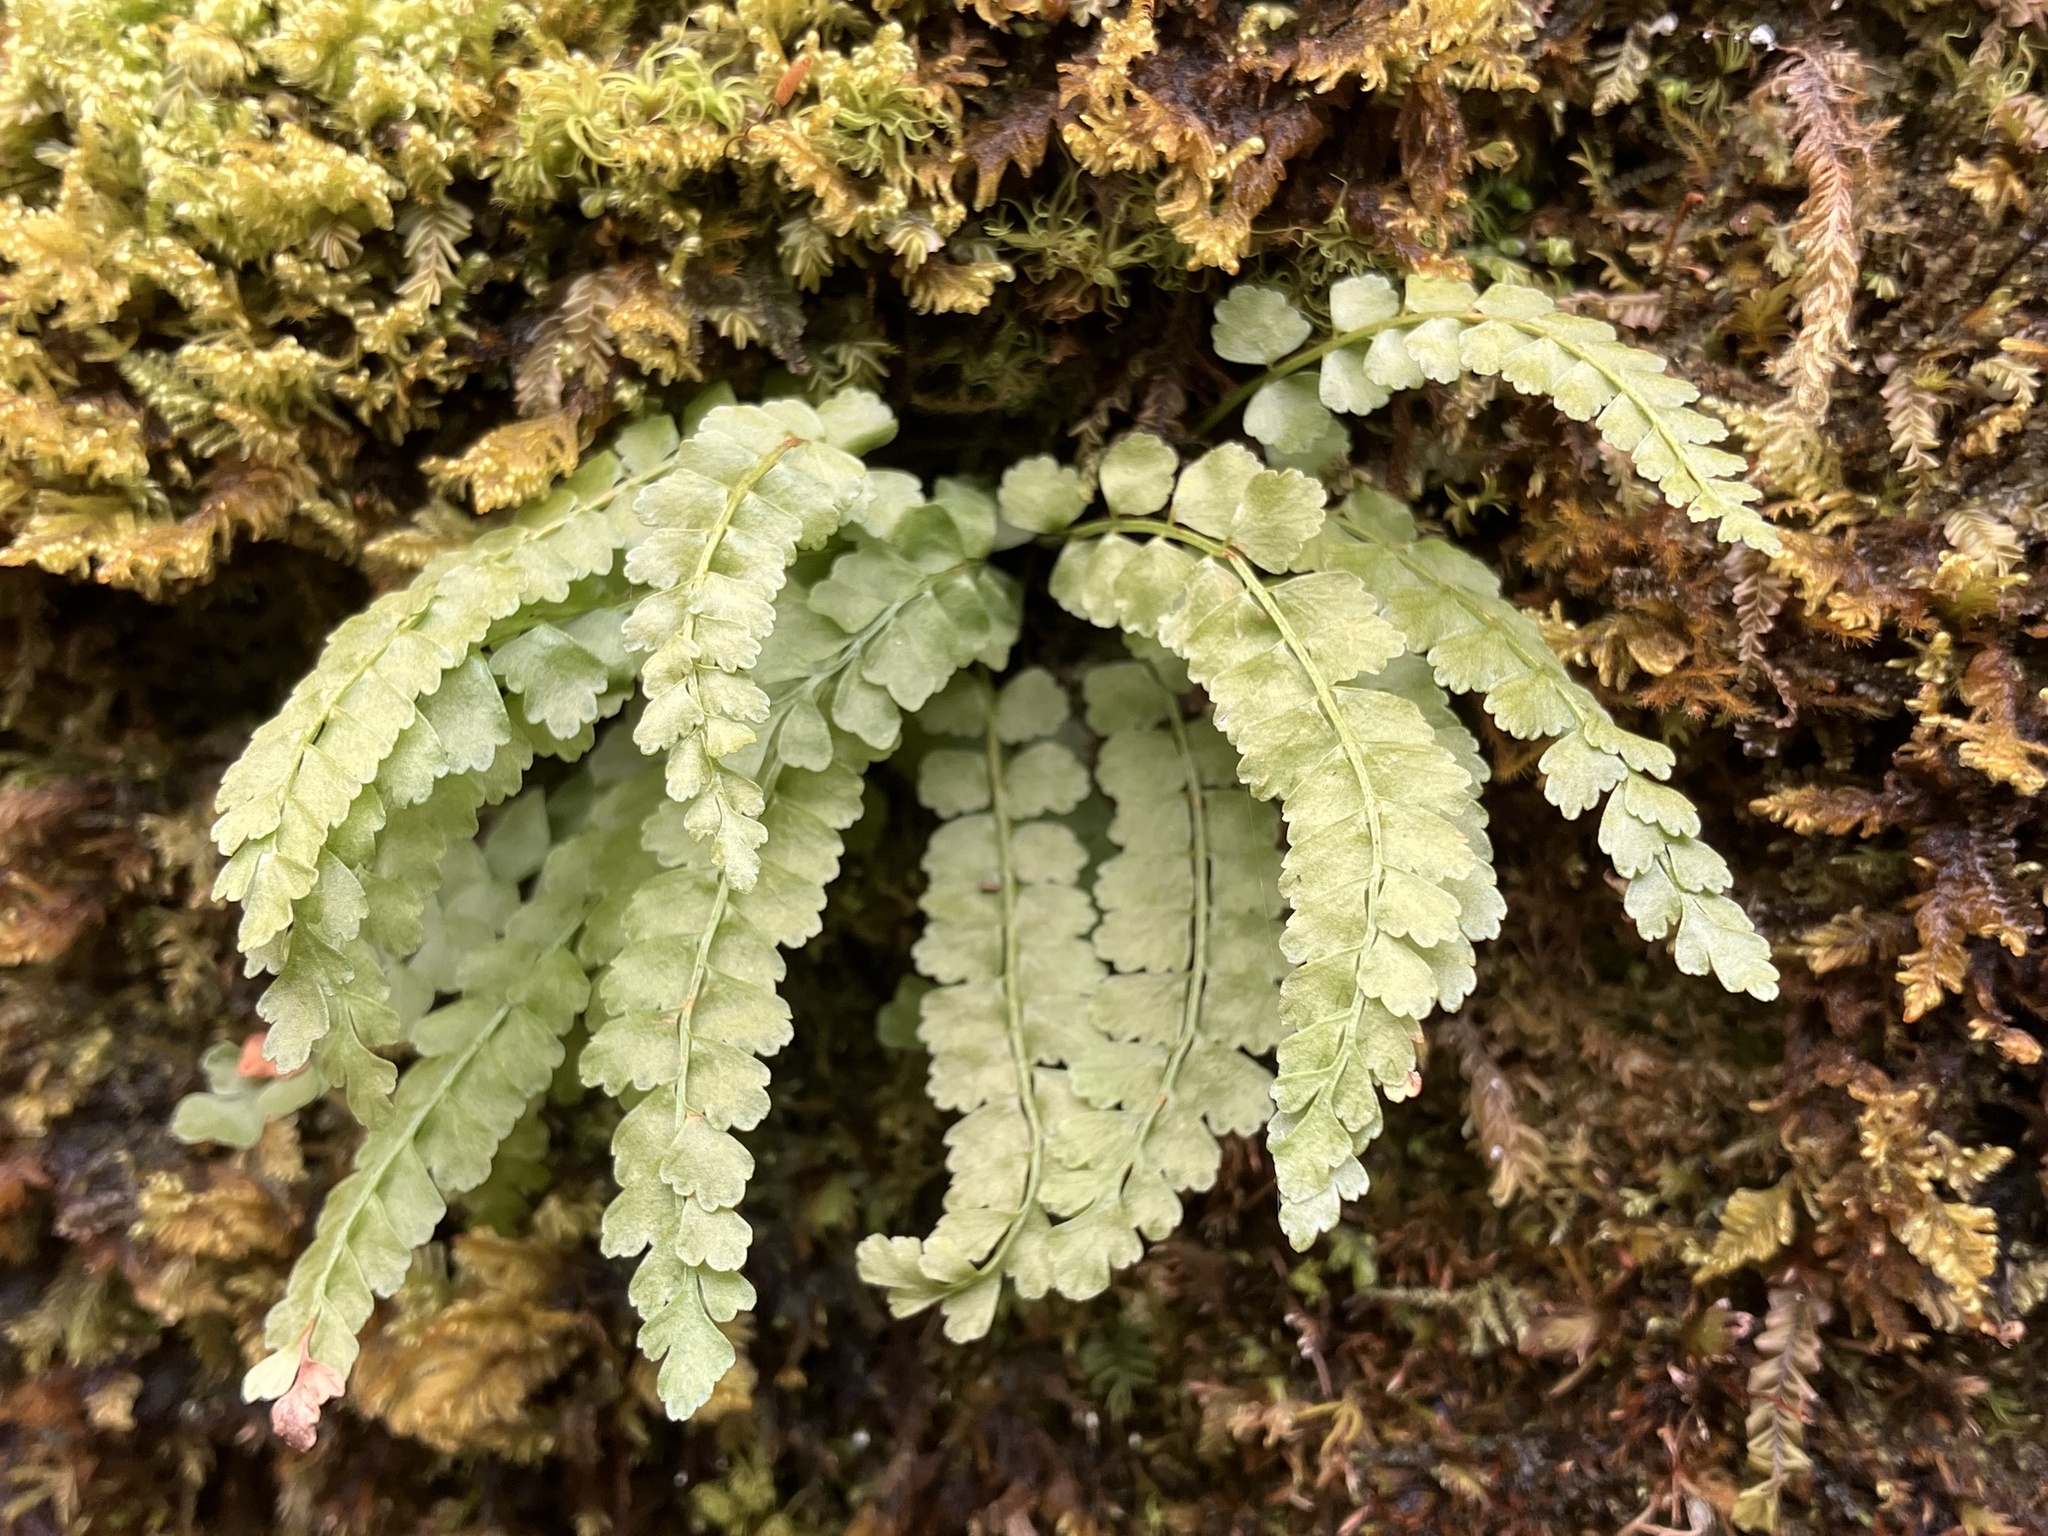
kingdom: Plantae
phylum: Tracheophyta
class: Polypodiopsida
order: Polypodiales
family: Aspleniaceae
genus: Asplenium
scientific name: Asplenium viride
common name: Green spleenwort
